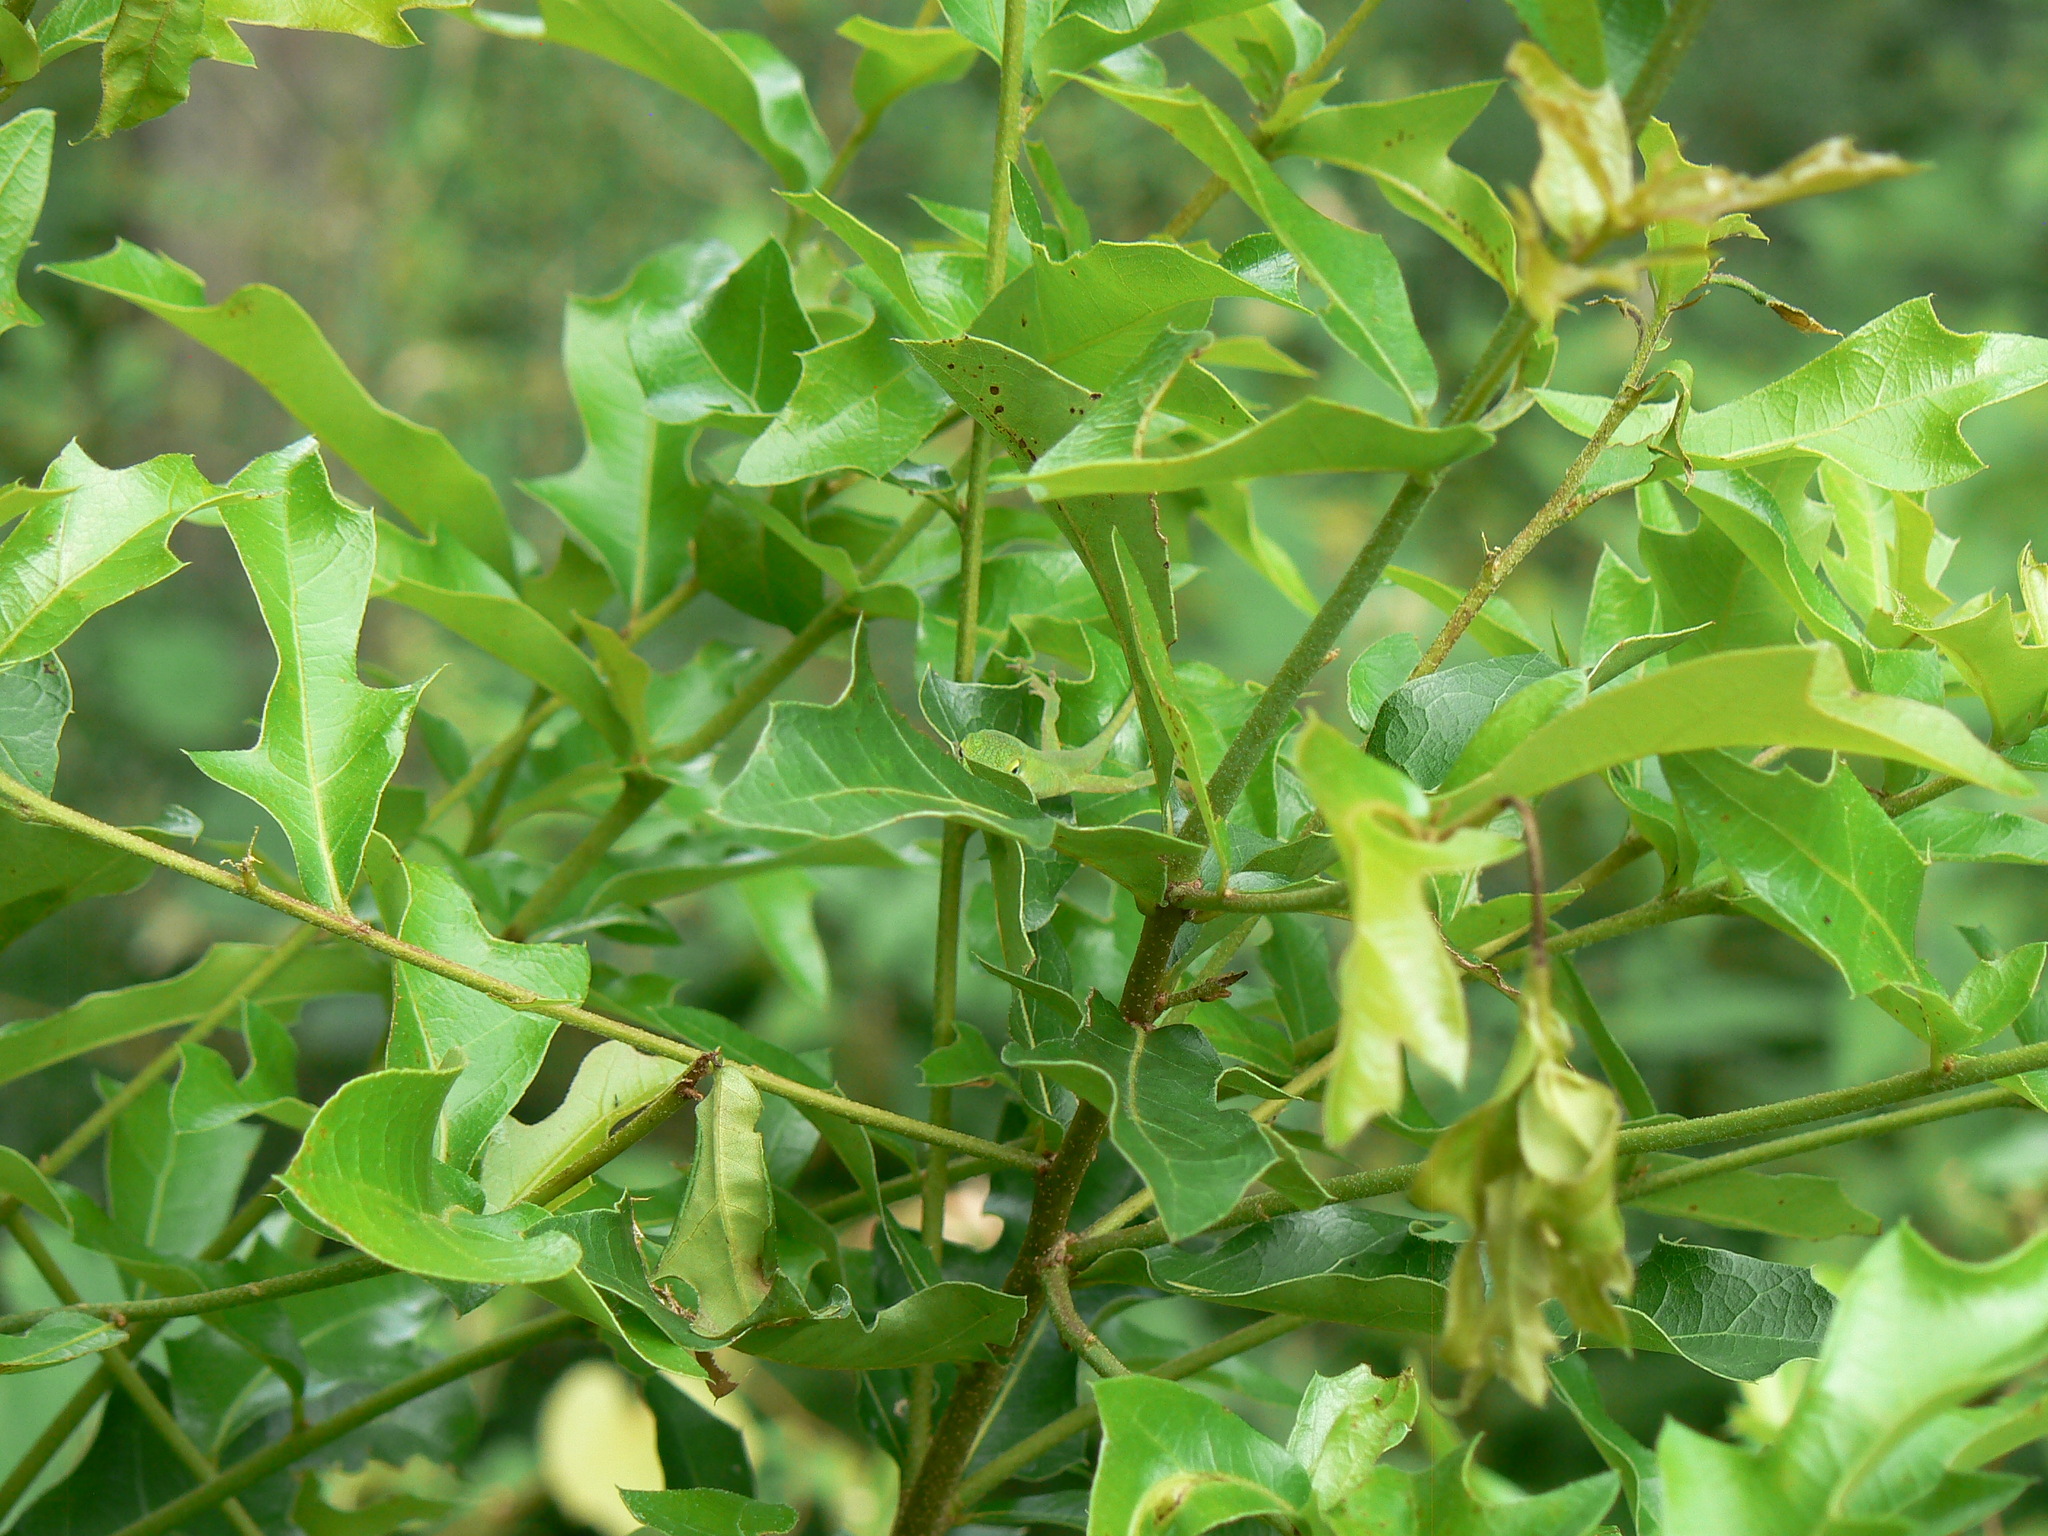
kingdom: Animalia
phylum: Chordata
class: Squamata
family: Dactyloidae
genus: Anolis
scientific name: Anolis carolinensis
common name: Green anole
